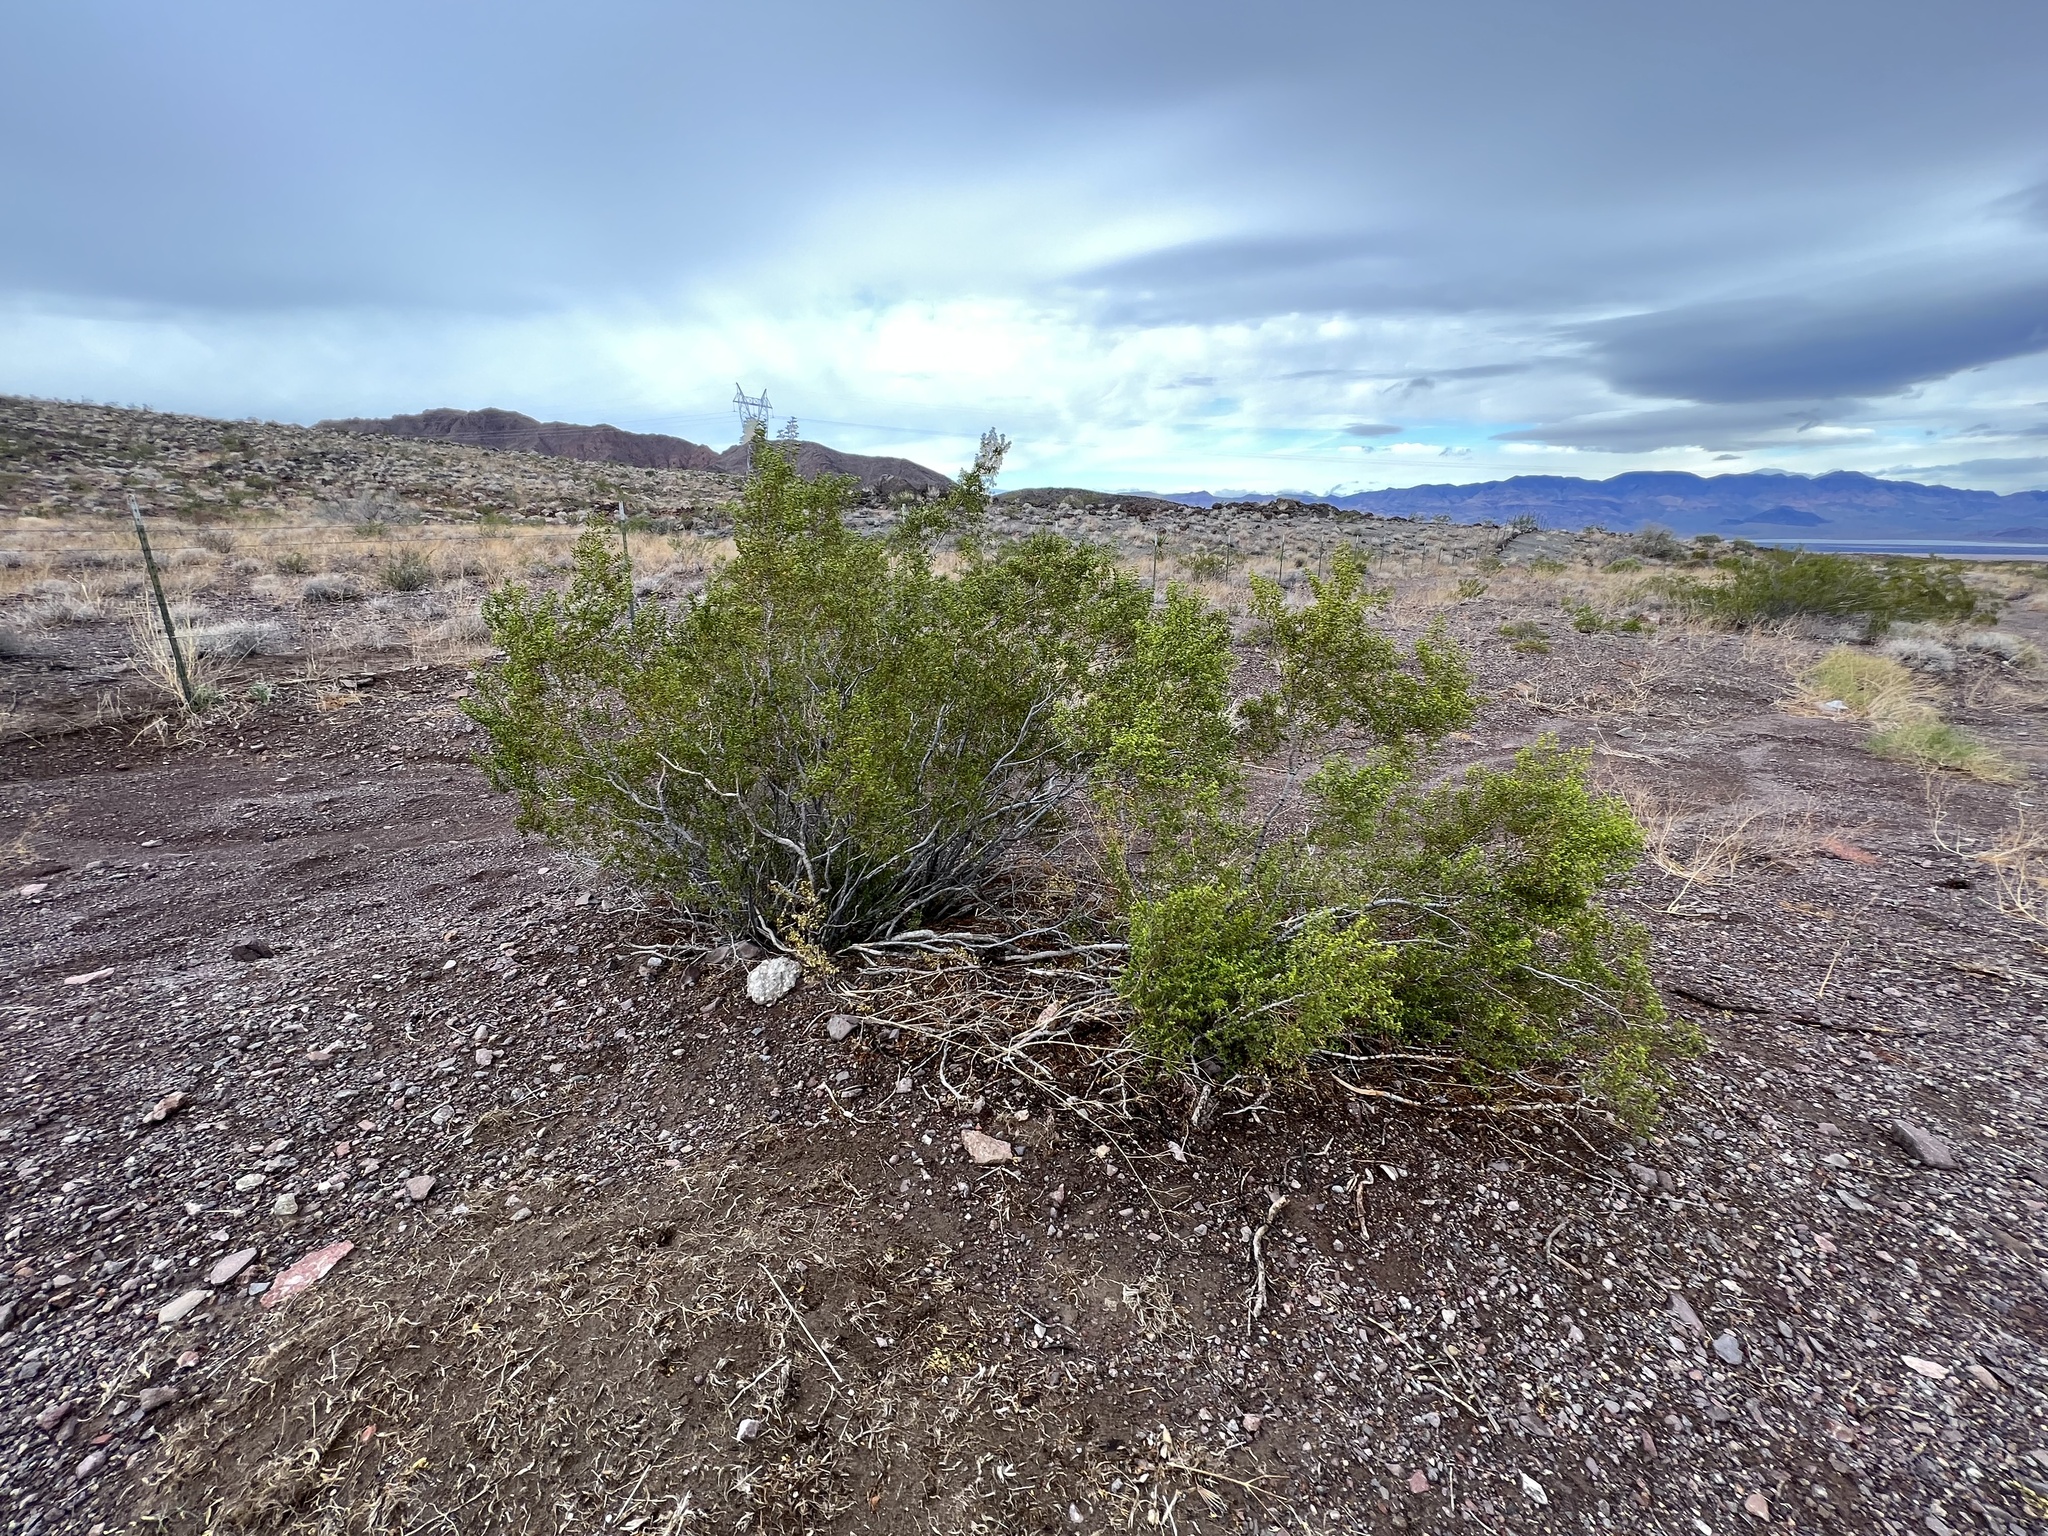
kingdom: Plantae
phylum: Tracheophyta
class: Magnoliopsida
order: Zygophyllales
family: Zygophyllaceae
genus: Larrea
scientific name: Larrea tridentata
